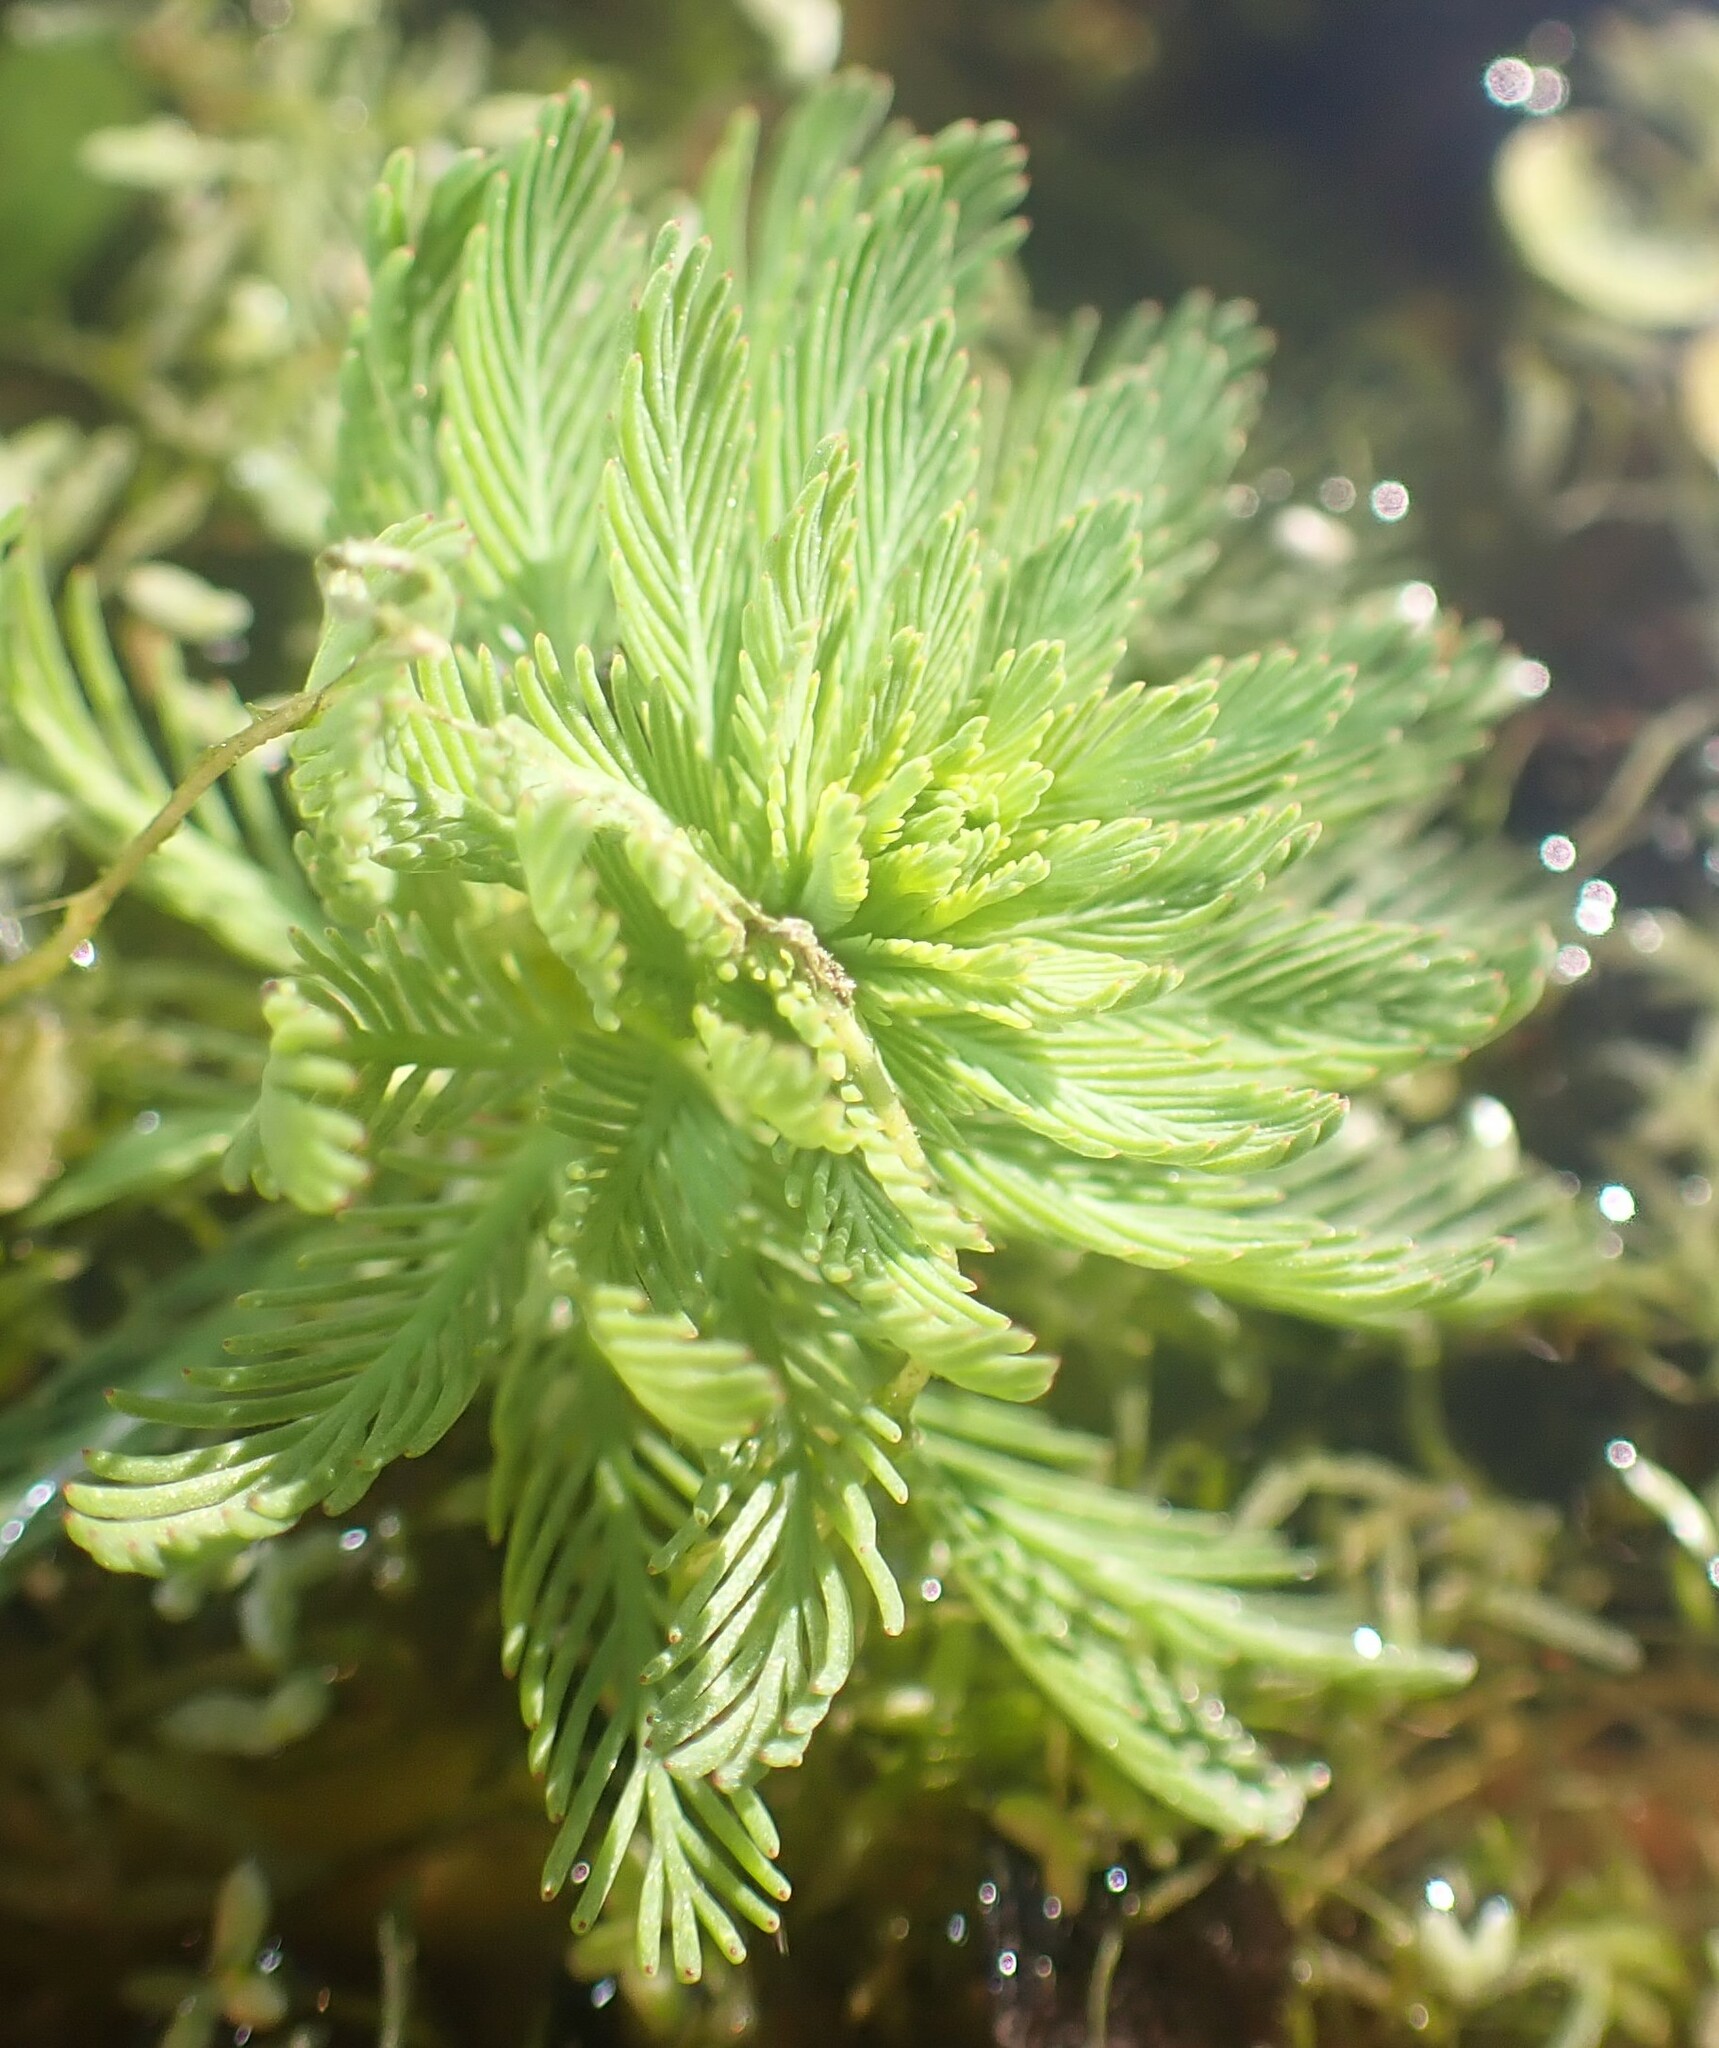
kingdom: Plantae
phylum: Tracheophyta
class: Magnoliopsida
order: Saxifragales
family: Haloragaceae
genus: Myriophyllum
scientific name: Myriophyllum aquaticum
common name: Parrot's feather
